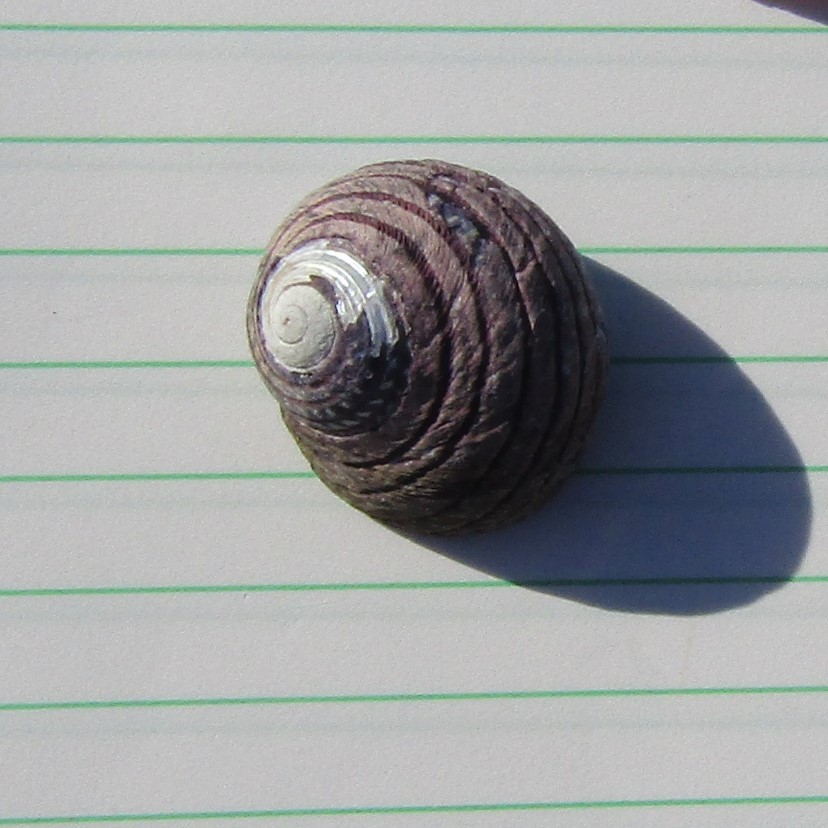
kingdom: Animalia
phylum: Mollusca
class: Gastropoda
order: Trochida
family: Trochidae
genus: Diloma
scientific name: Diloma aethiops
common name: Scorched monodont
